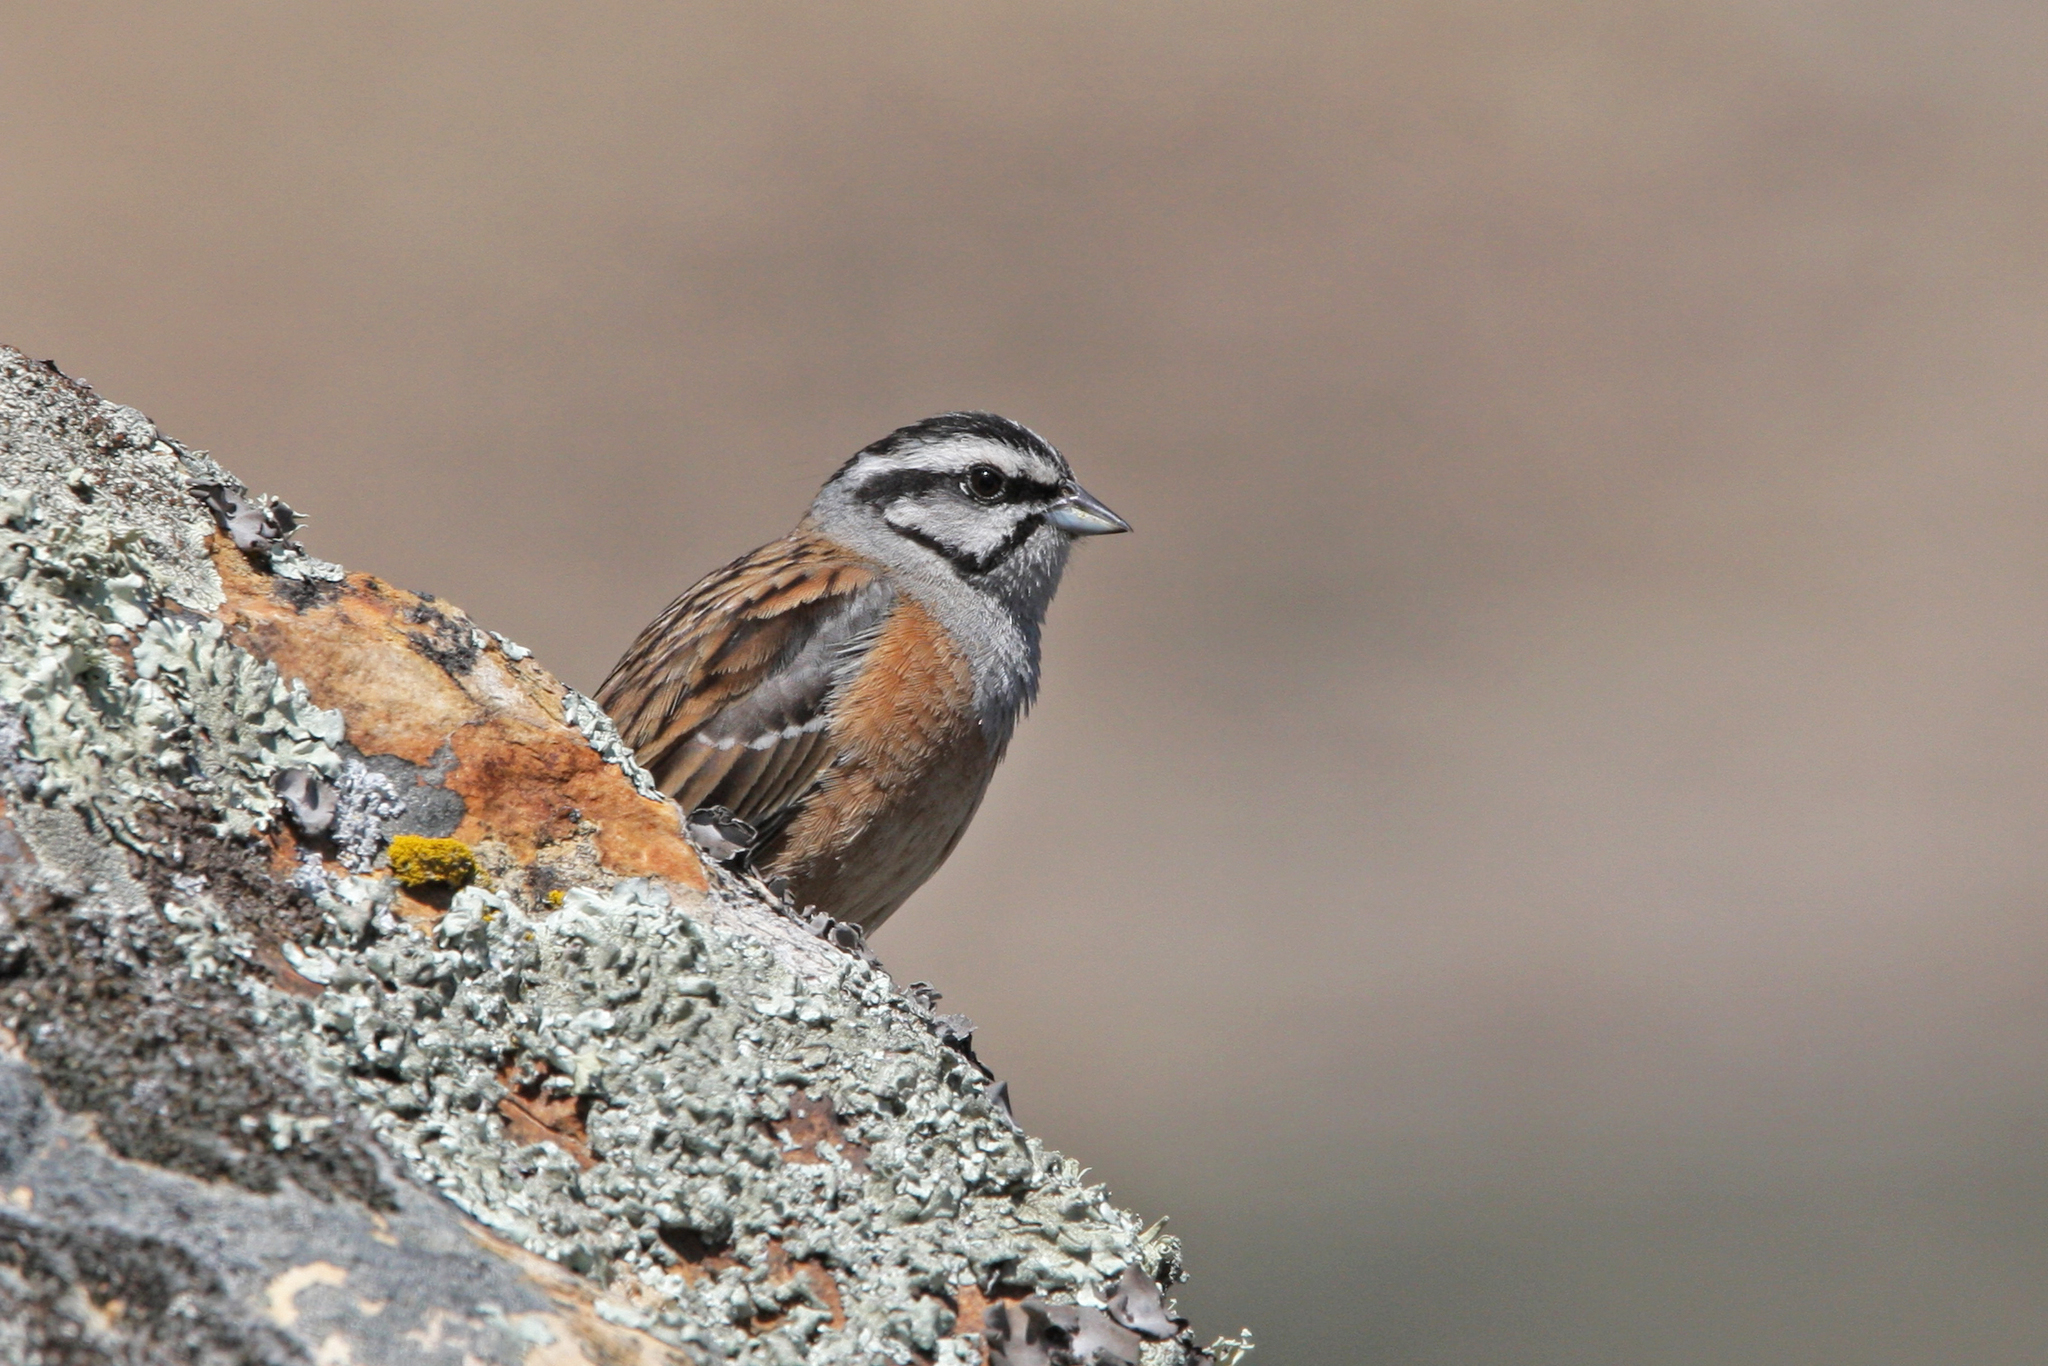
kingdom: Animalia
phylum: Chordata
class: Aves
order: Passeriformes
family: Emberizidae
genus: Emberiza
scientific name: Emberiza cia
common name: Rock bunting
